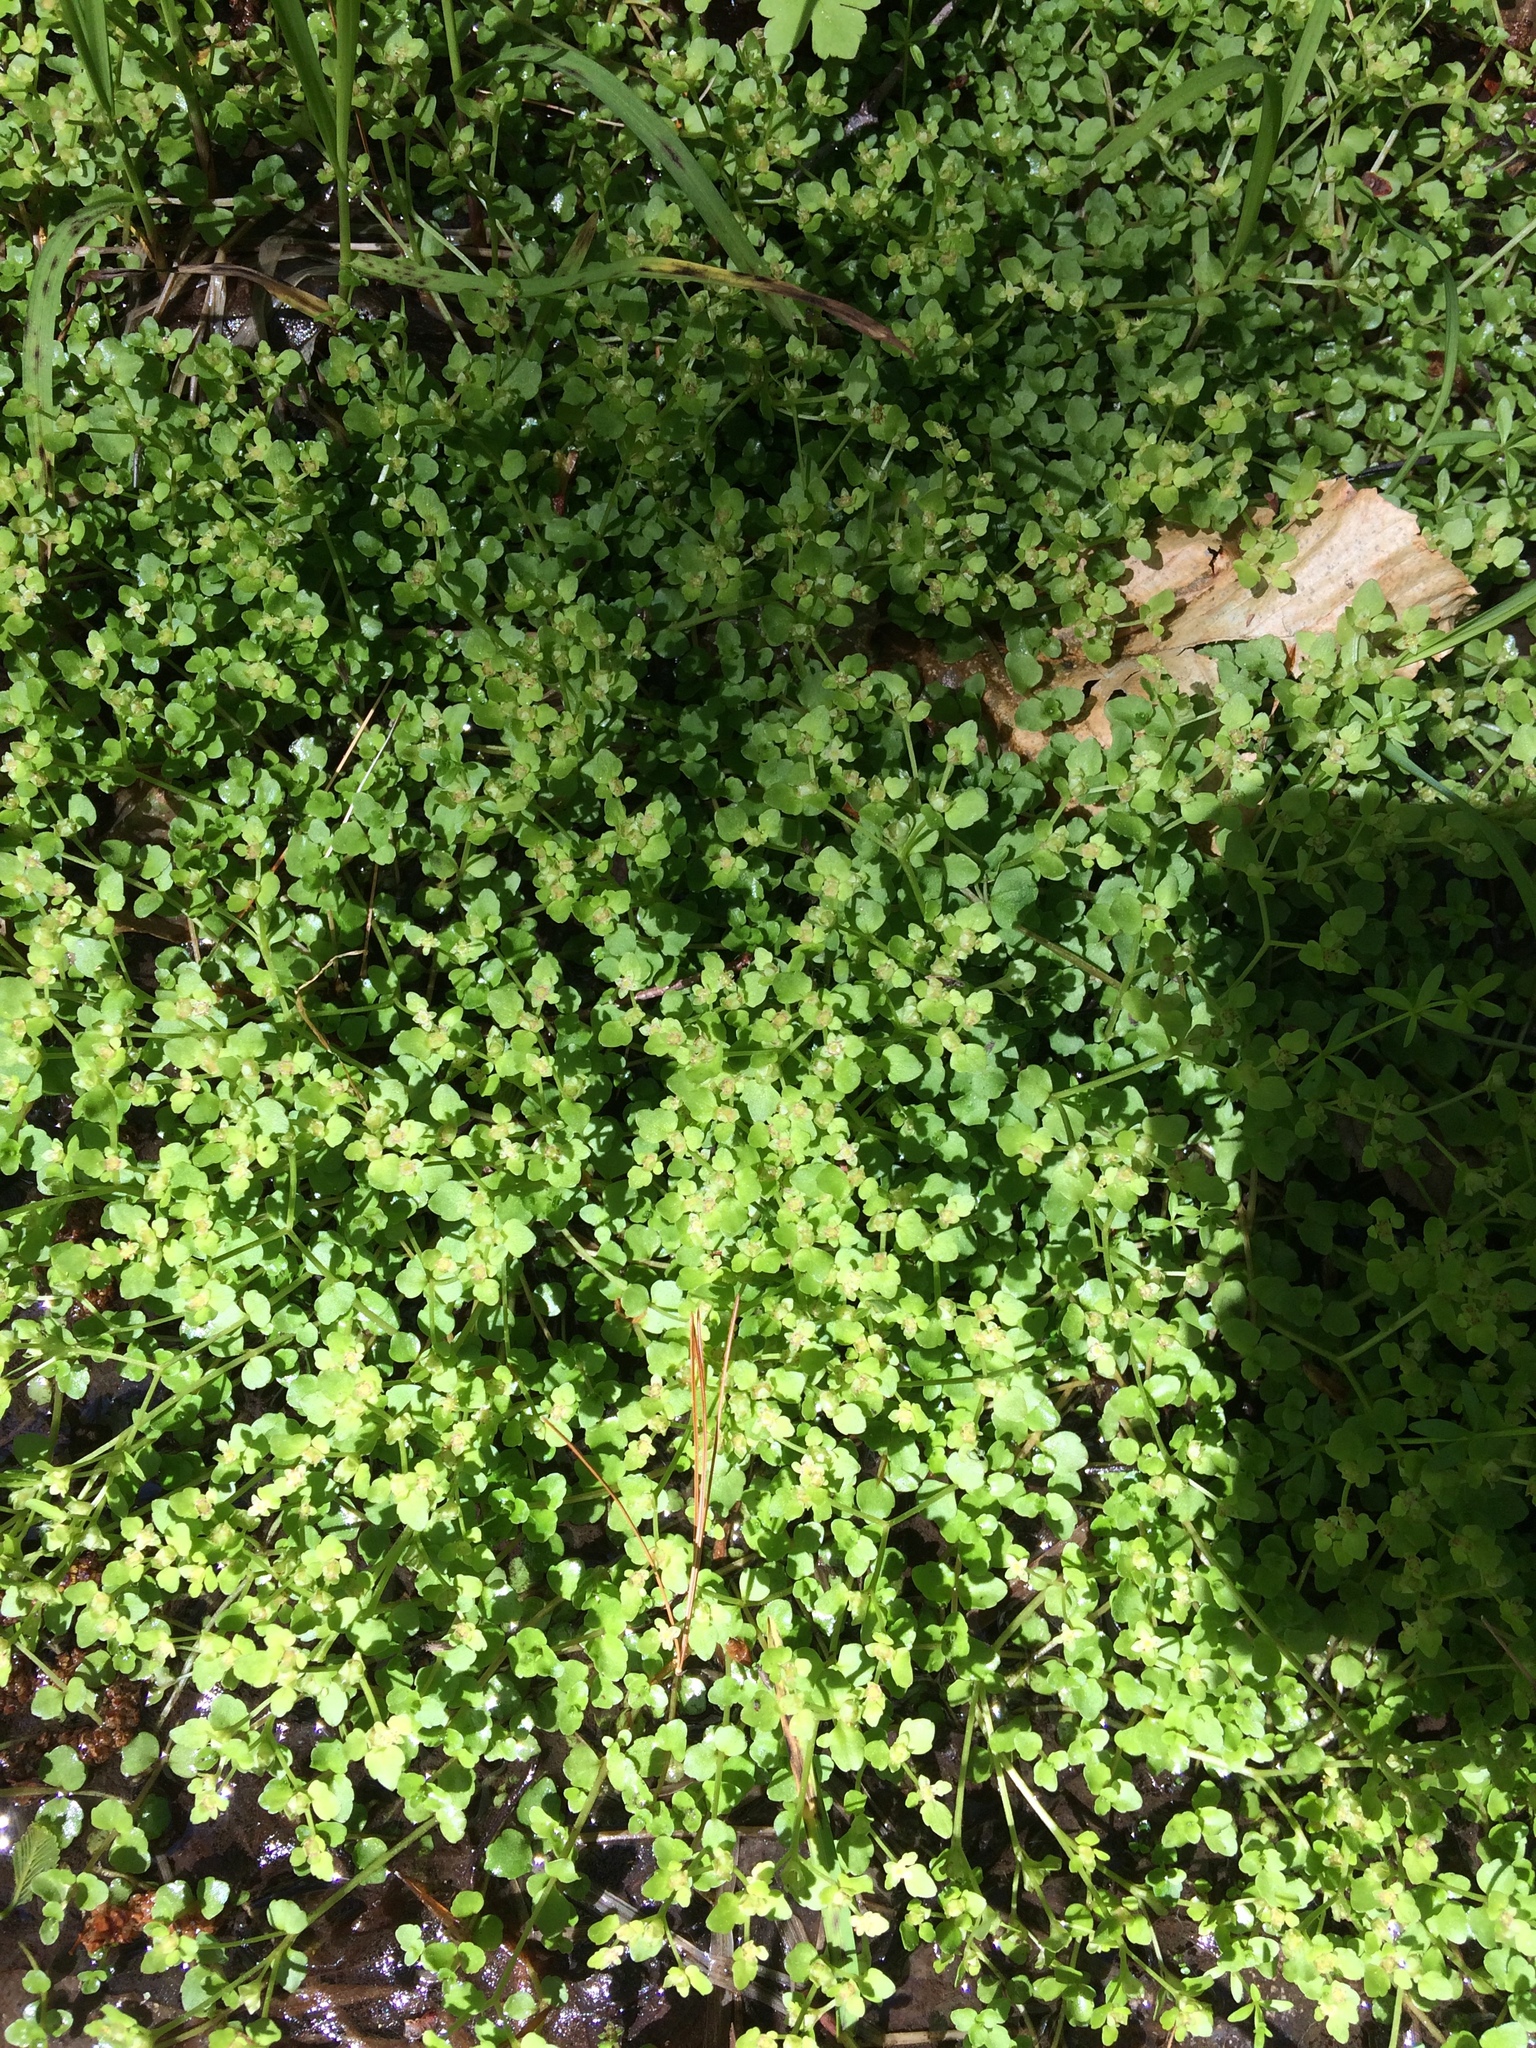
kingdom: Plantae
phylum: Tracheophyta
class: Magnoliopsida
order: Saxifragales
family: Saxifragaceae
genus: Chrysosplenium
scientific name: Chrysosplenium americanum
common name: American golden-saxifrage
